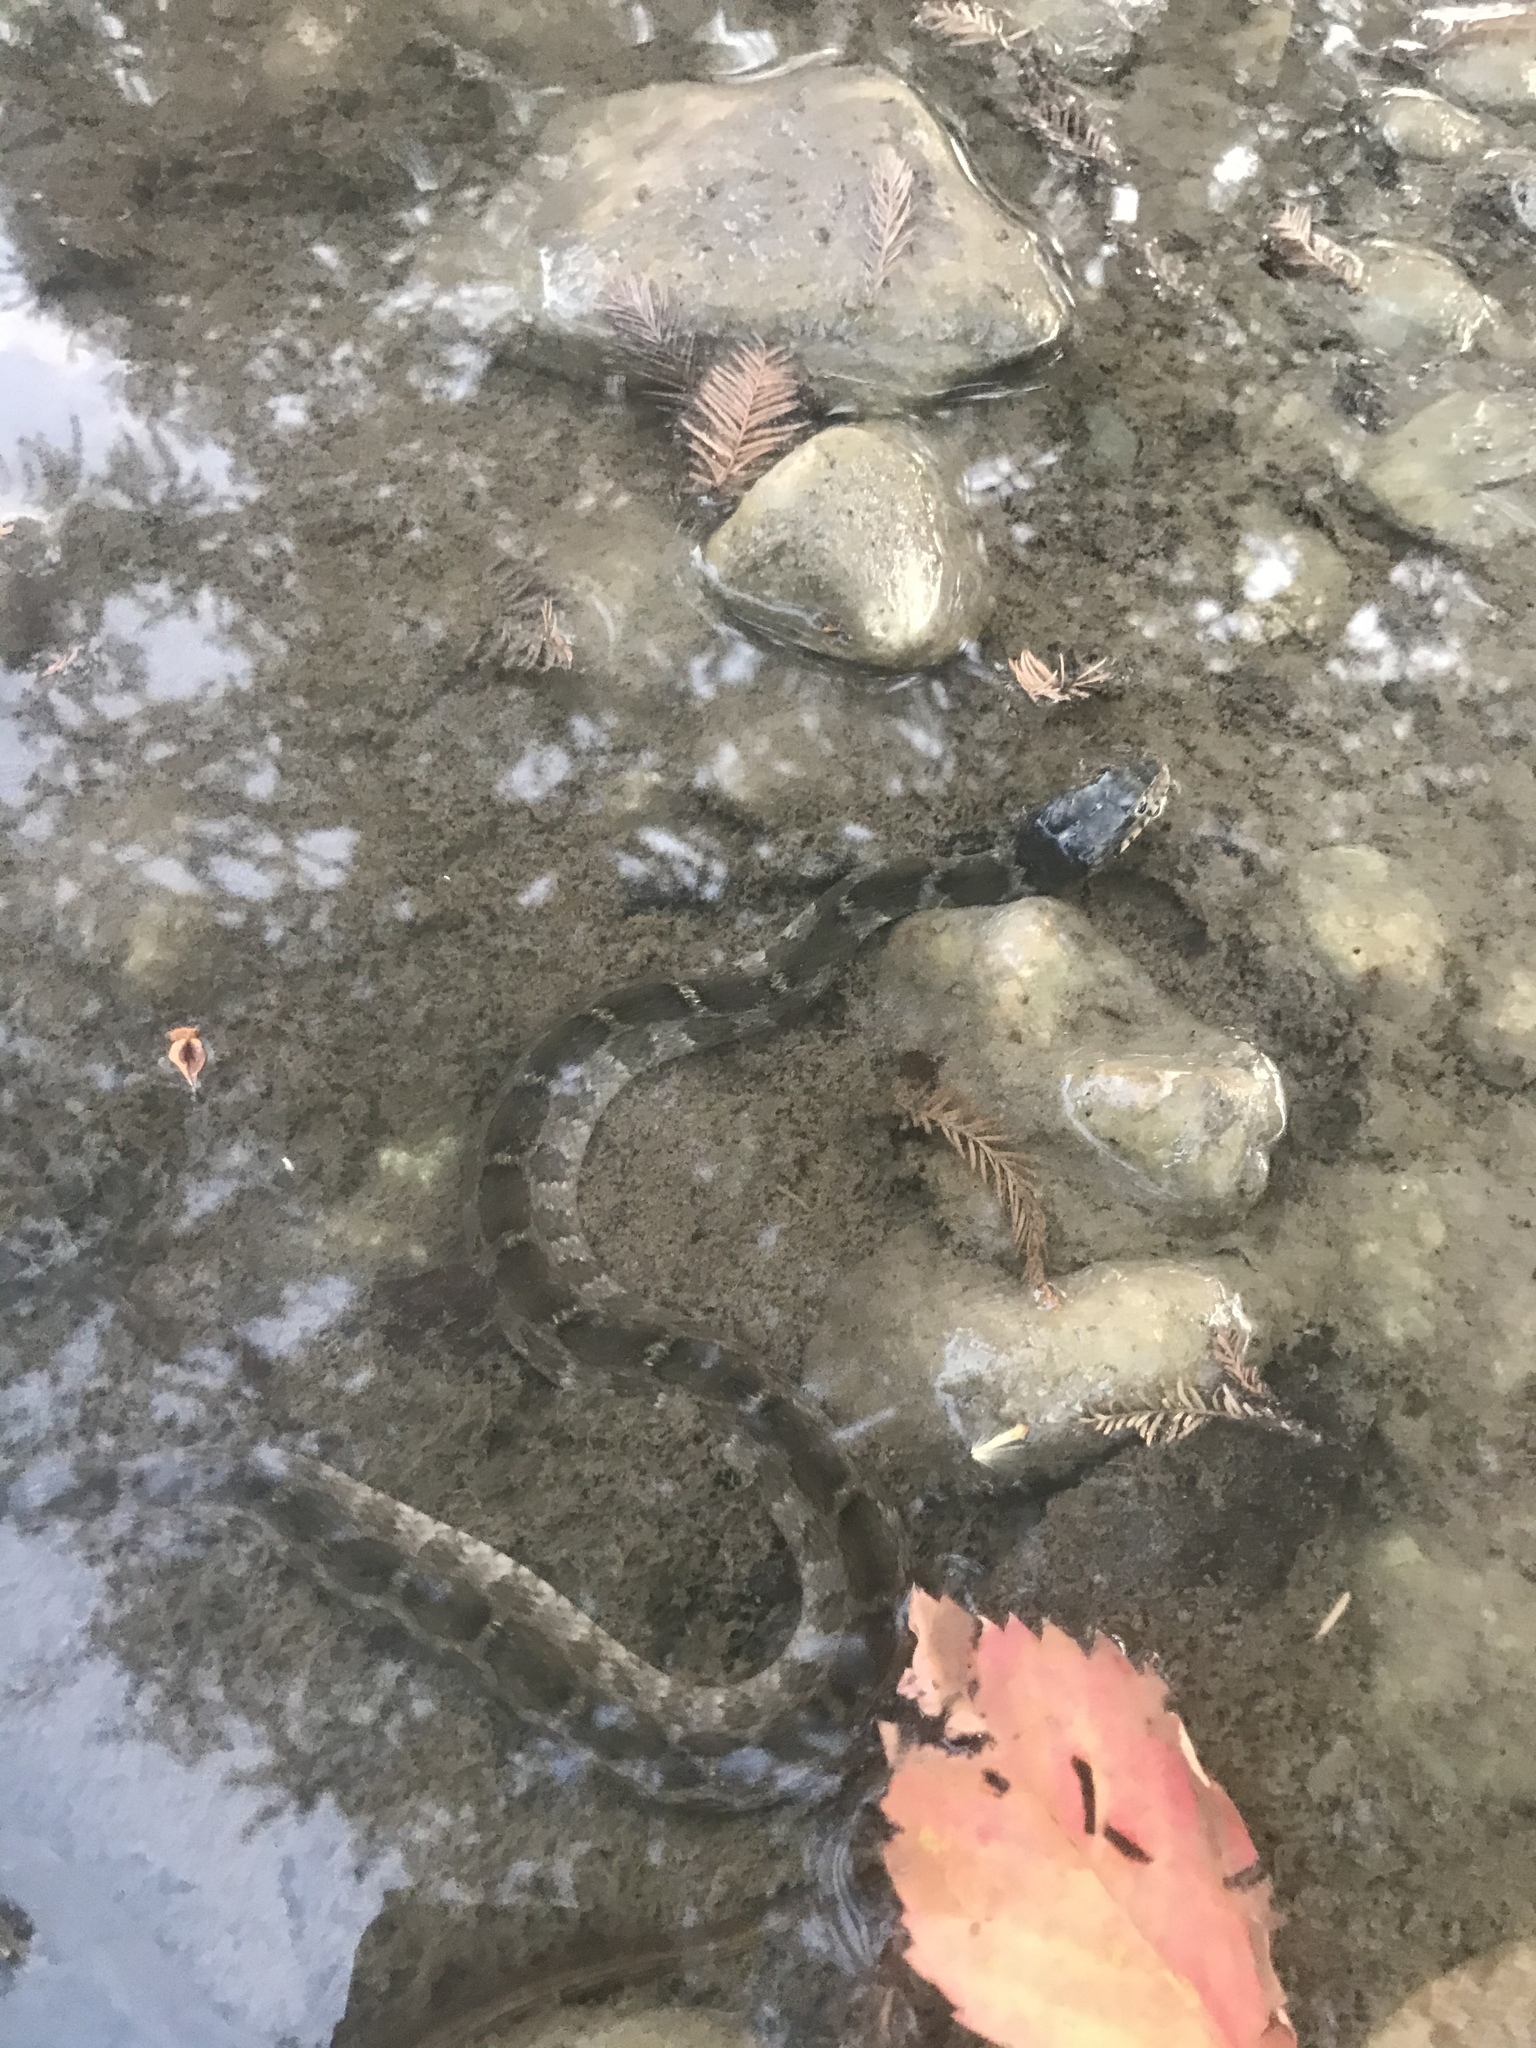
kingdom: Animalia
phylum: Chordata
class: Squamata
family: Colubridae
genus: Nerodia
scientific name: Nerodia erythrogaster
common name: Plainbelly water snake
